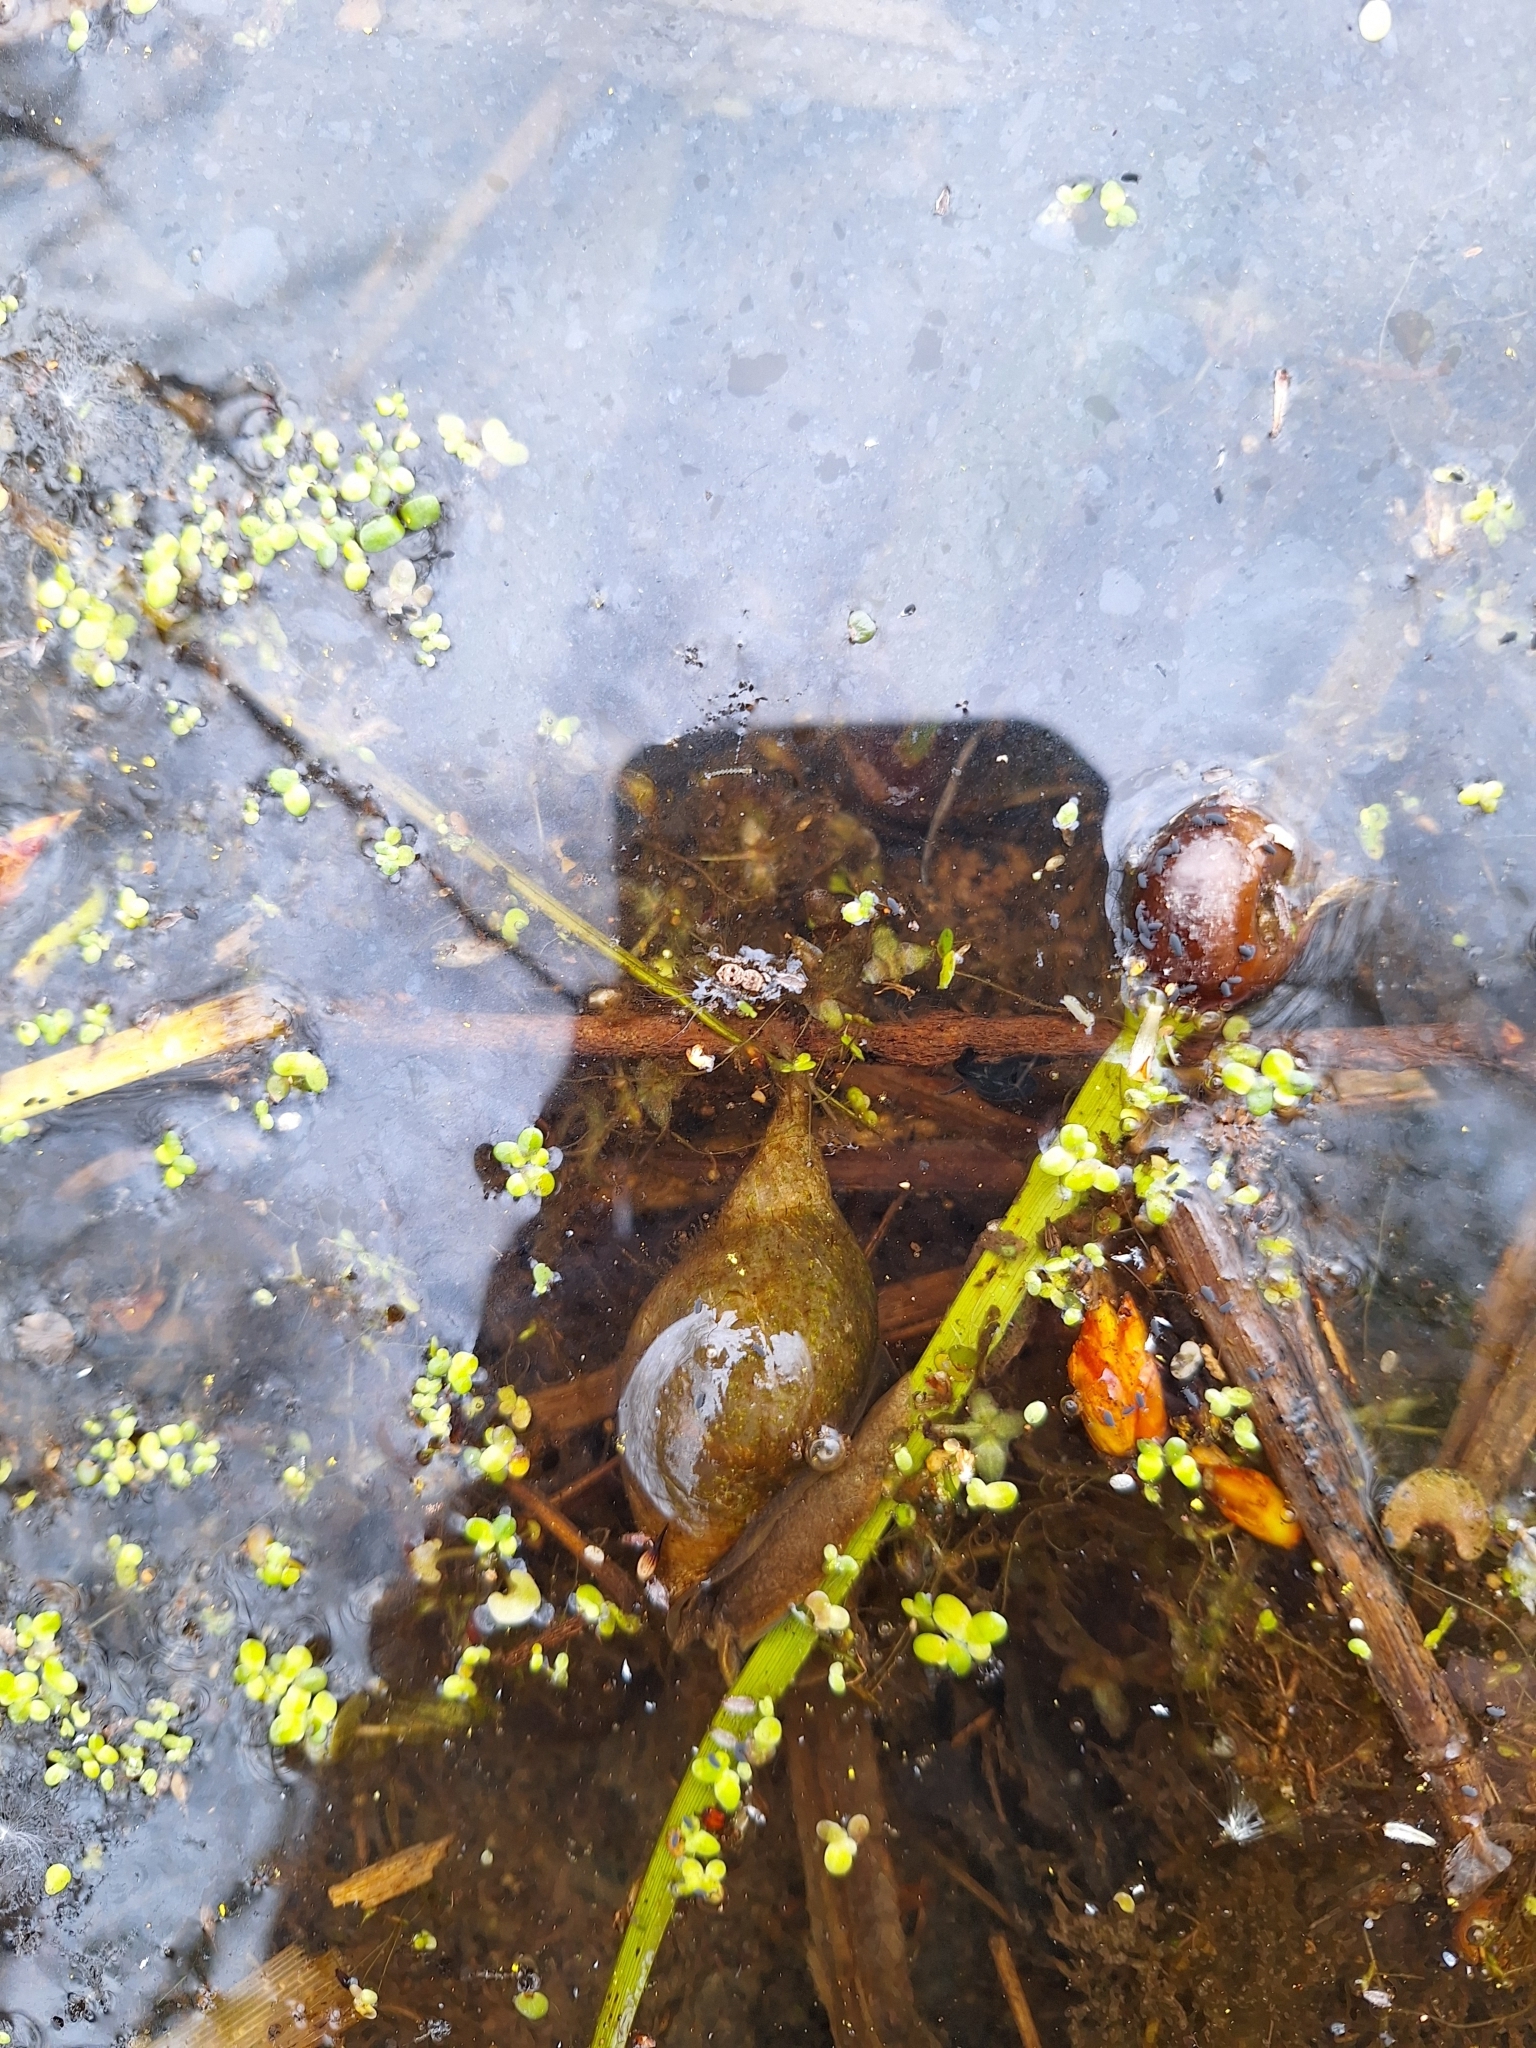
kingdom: Animalia
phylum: Mollusca
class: Gastropoda
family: Lymnaeidae
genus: Lymnaea
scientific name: Lymnaea stagnalis
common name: Great pond snail
